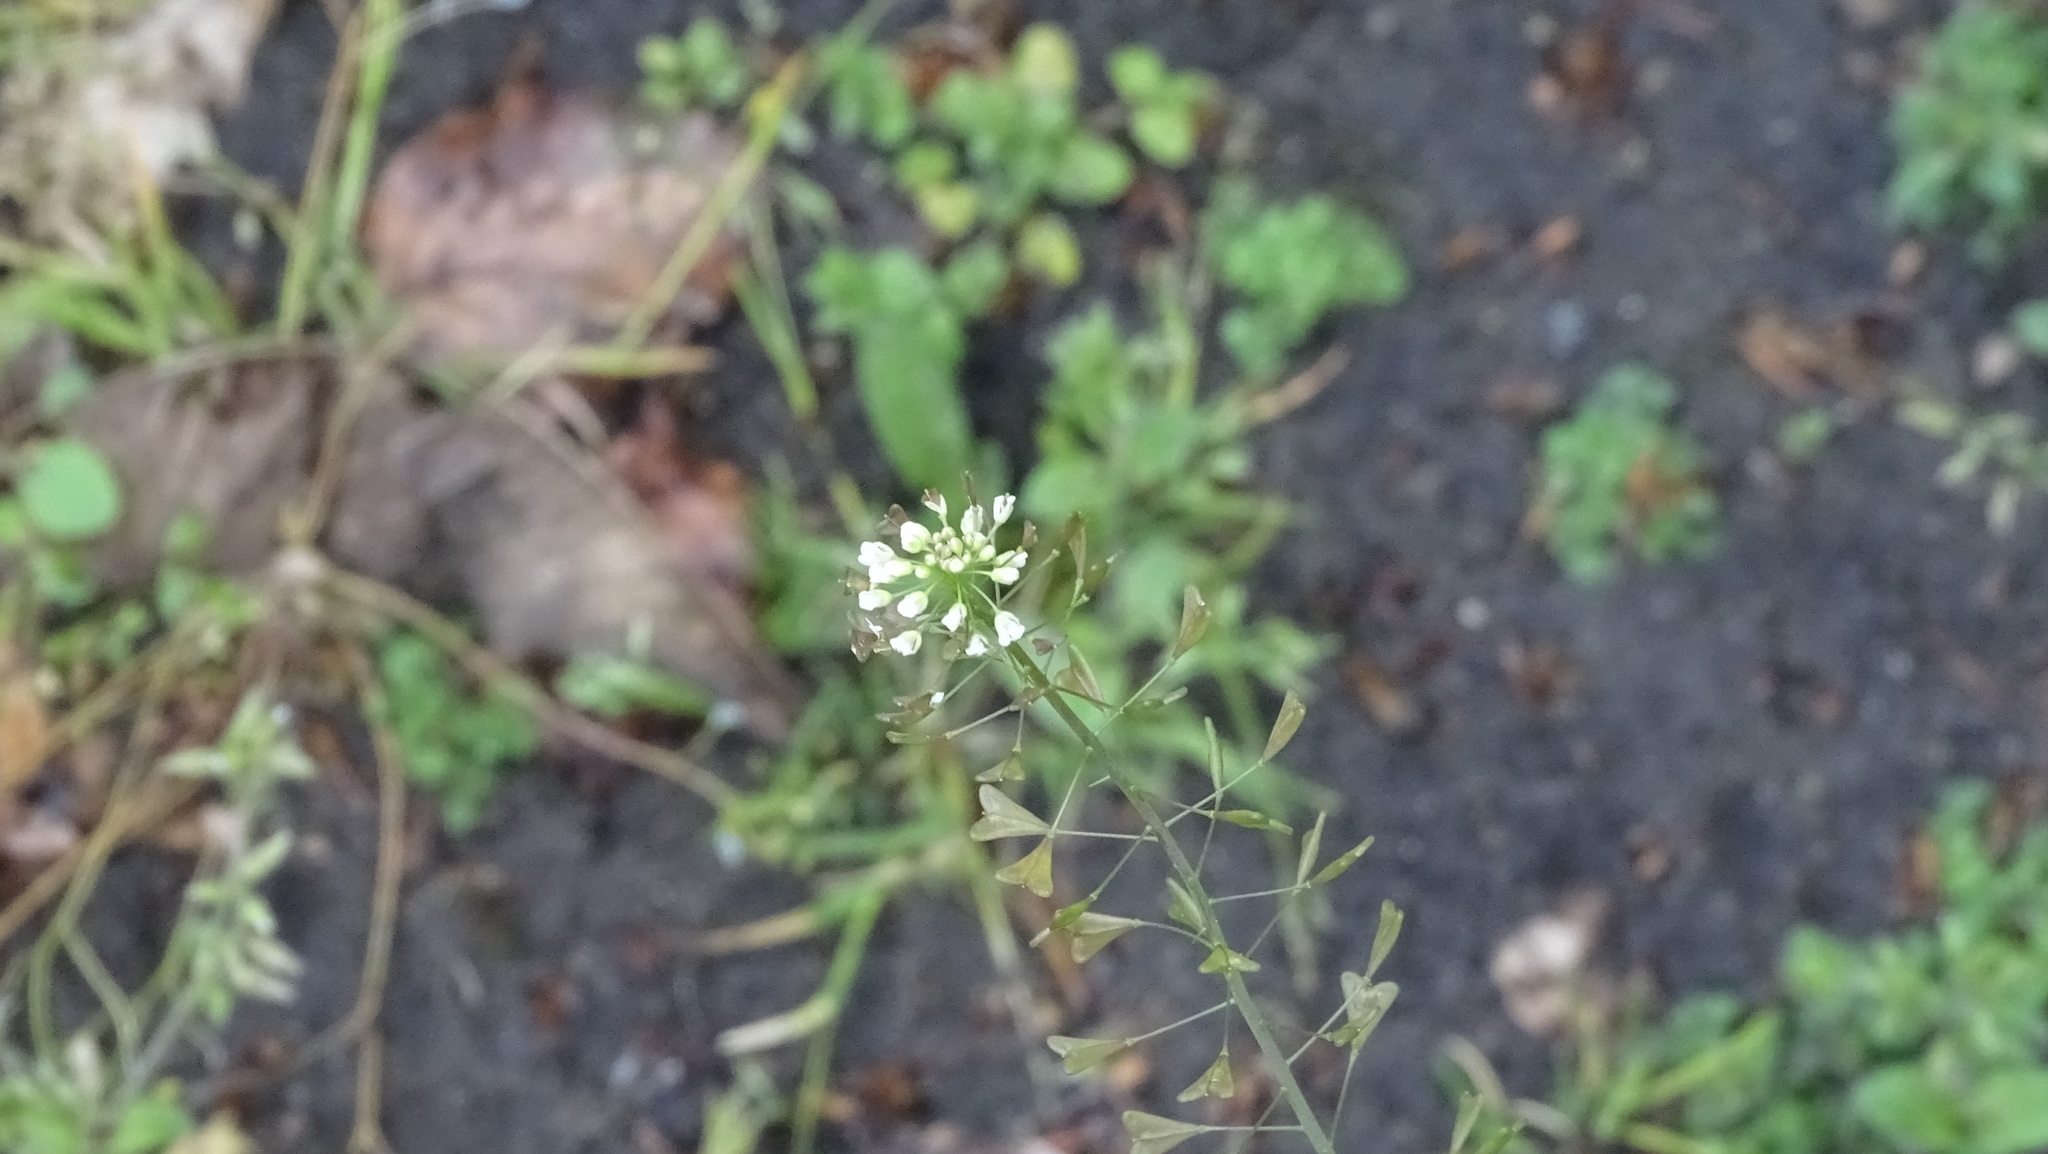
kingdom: Plantae
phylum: Tracheophyta
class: Magnoliopsida
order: Brassicales
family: Brassicaceae
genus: Capsella
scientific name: Capsella bursa-pastoris
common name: Shepherd's purse
